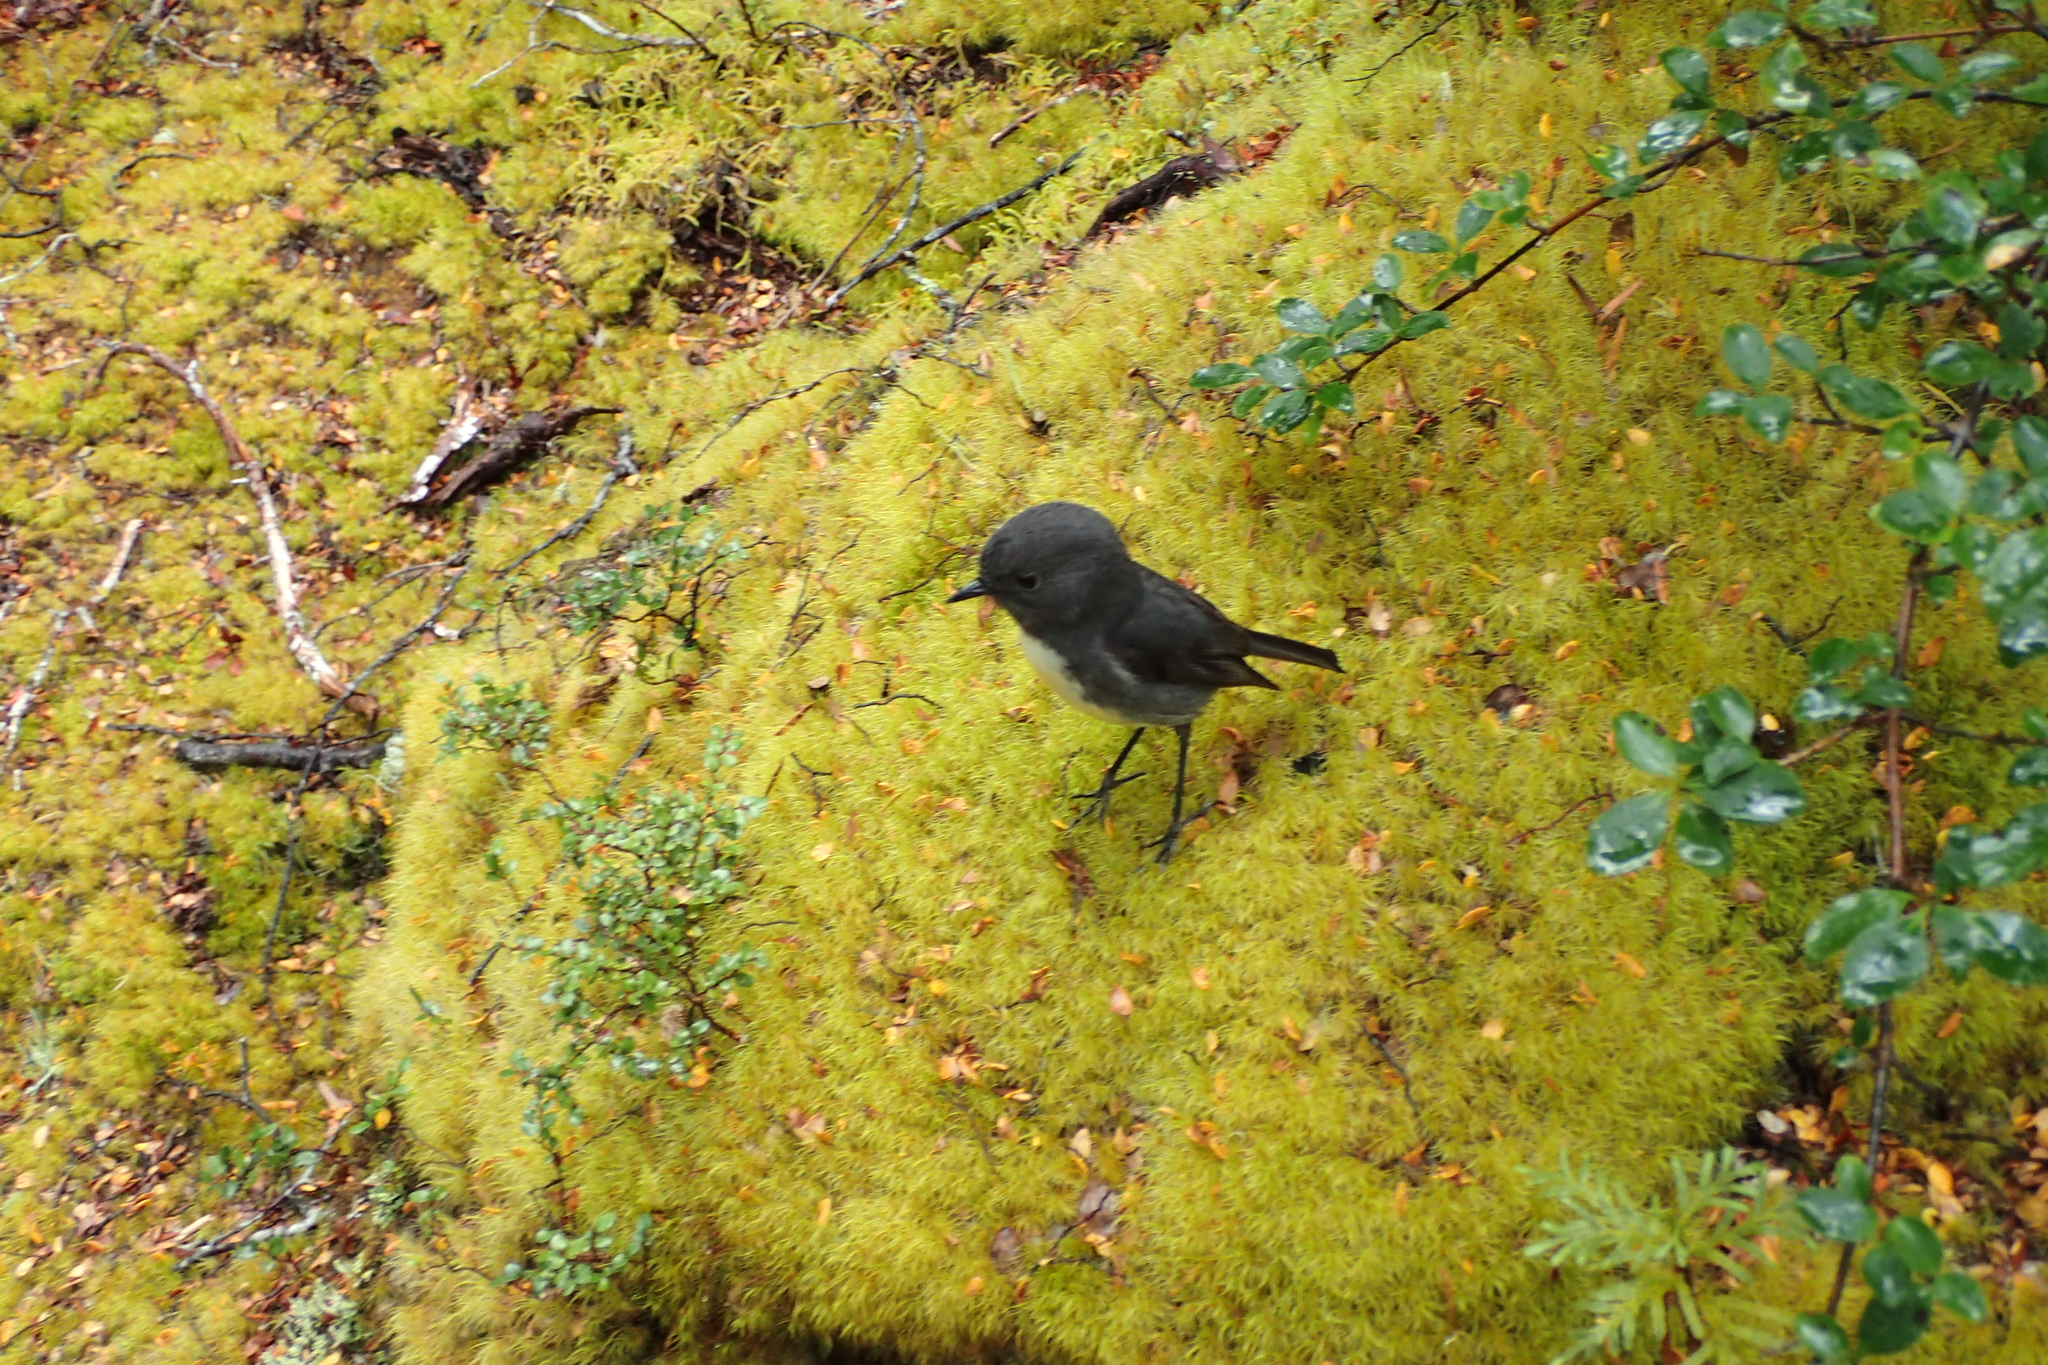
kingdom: Animalia
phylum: Chordata
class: Aves
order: Passeriformes
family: Petroicidae
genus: Petroica
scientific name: Petroica australis
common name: New zealand robin
